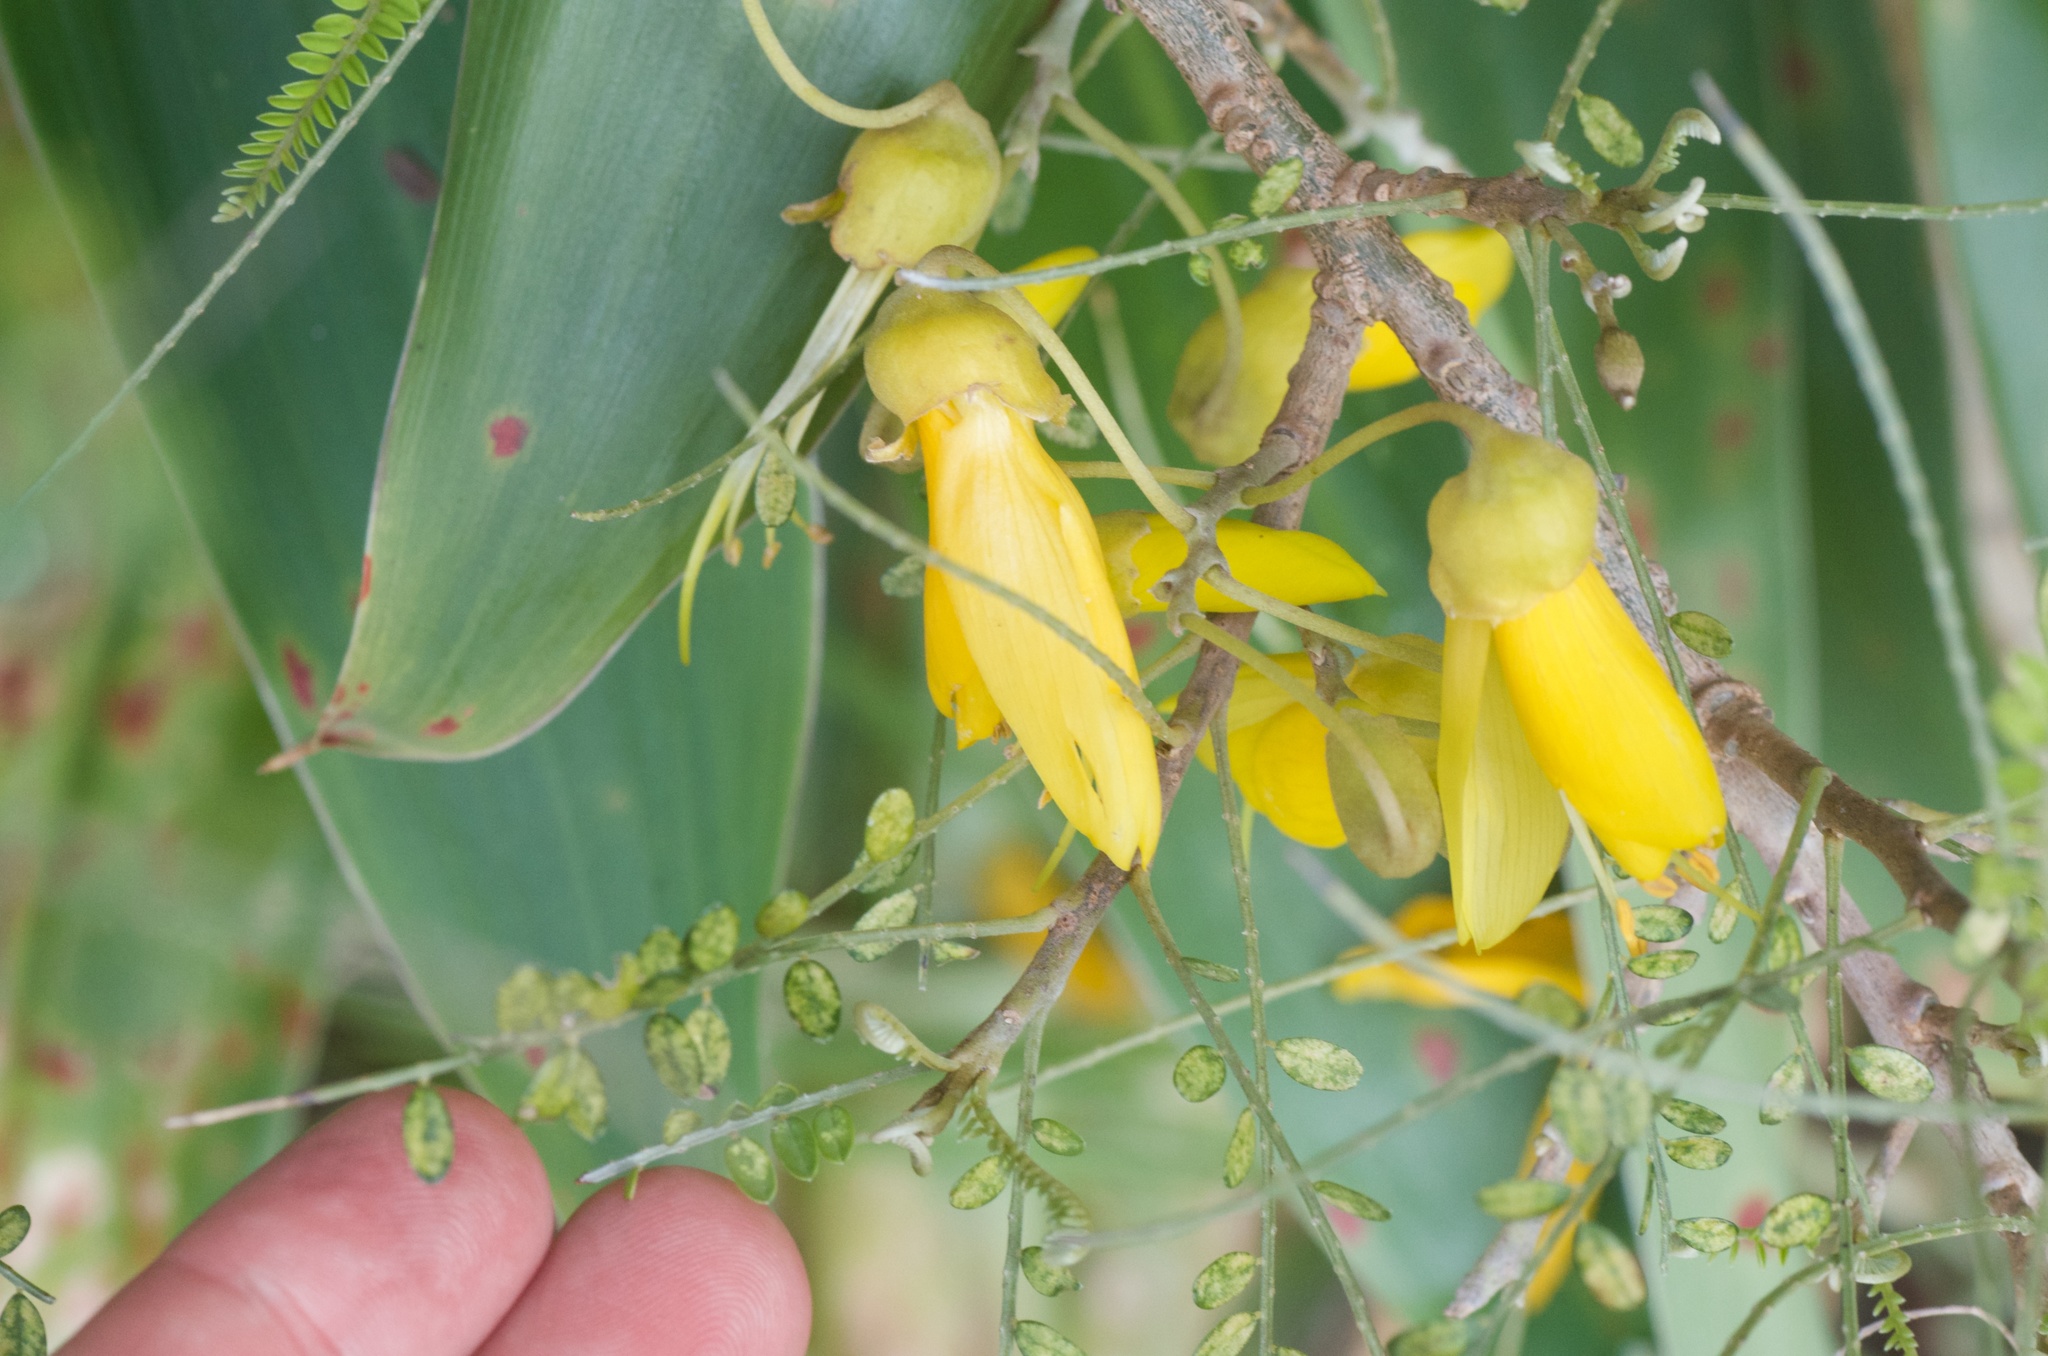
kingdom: Plantae
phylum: Tracheophyta
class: Magnoliopsida
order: Fabales
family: Fabaceae
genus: Sophora
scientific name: Sophora microphylla
